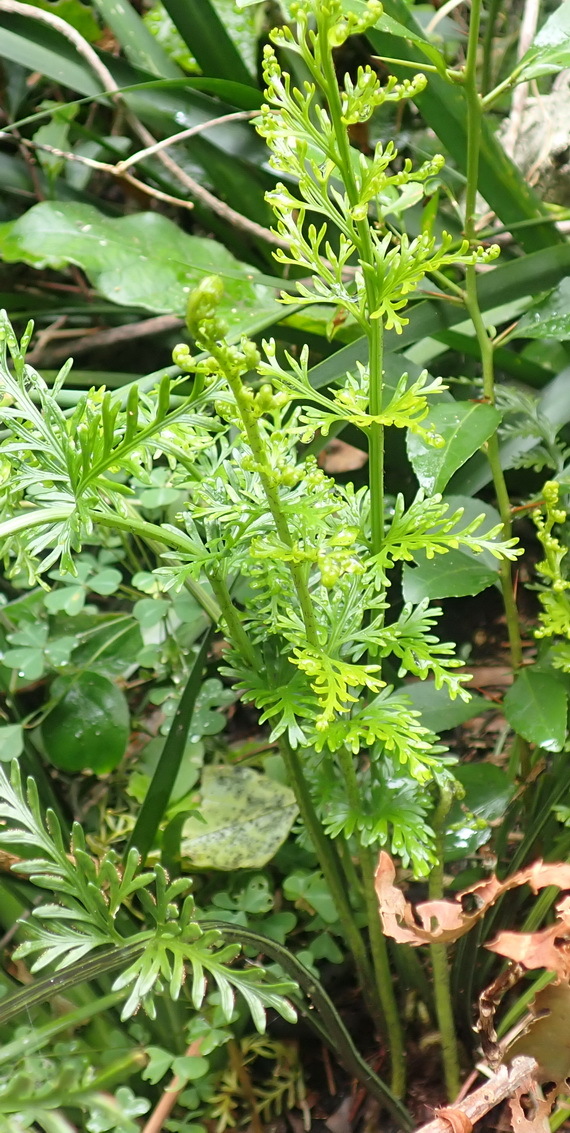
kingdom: Plantae
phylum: Tracheophyta
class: Polypodiopsida
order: Polypodiales
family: Aspleniaceae
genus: Asplenium
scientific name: Asplenium rutifolium
